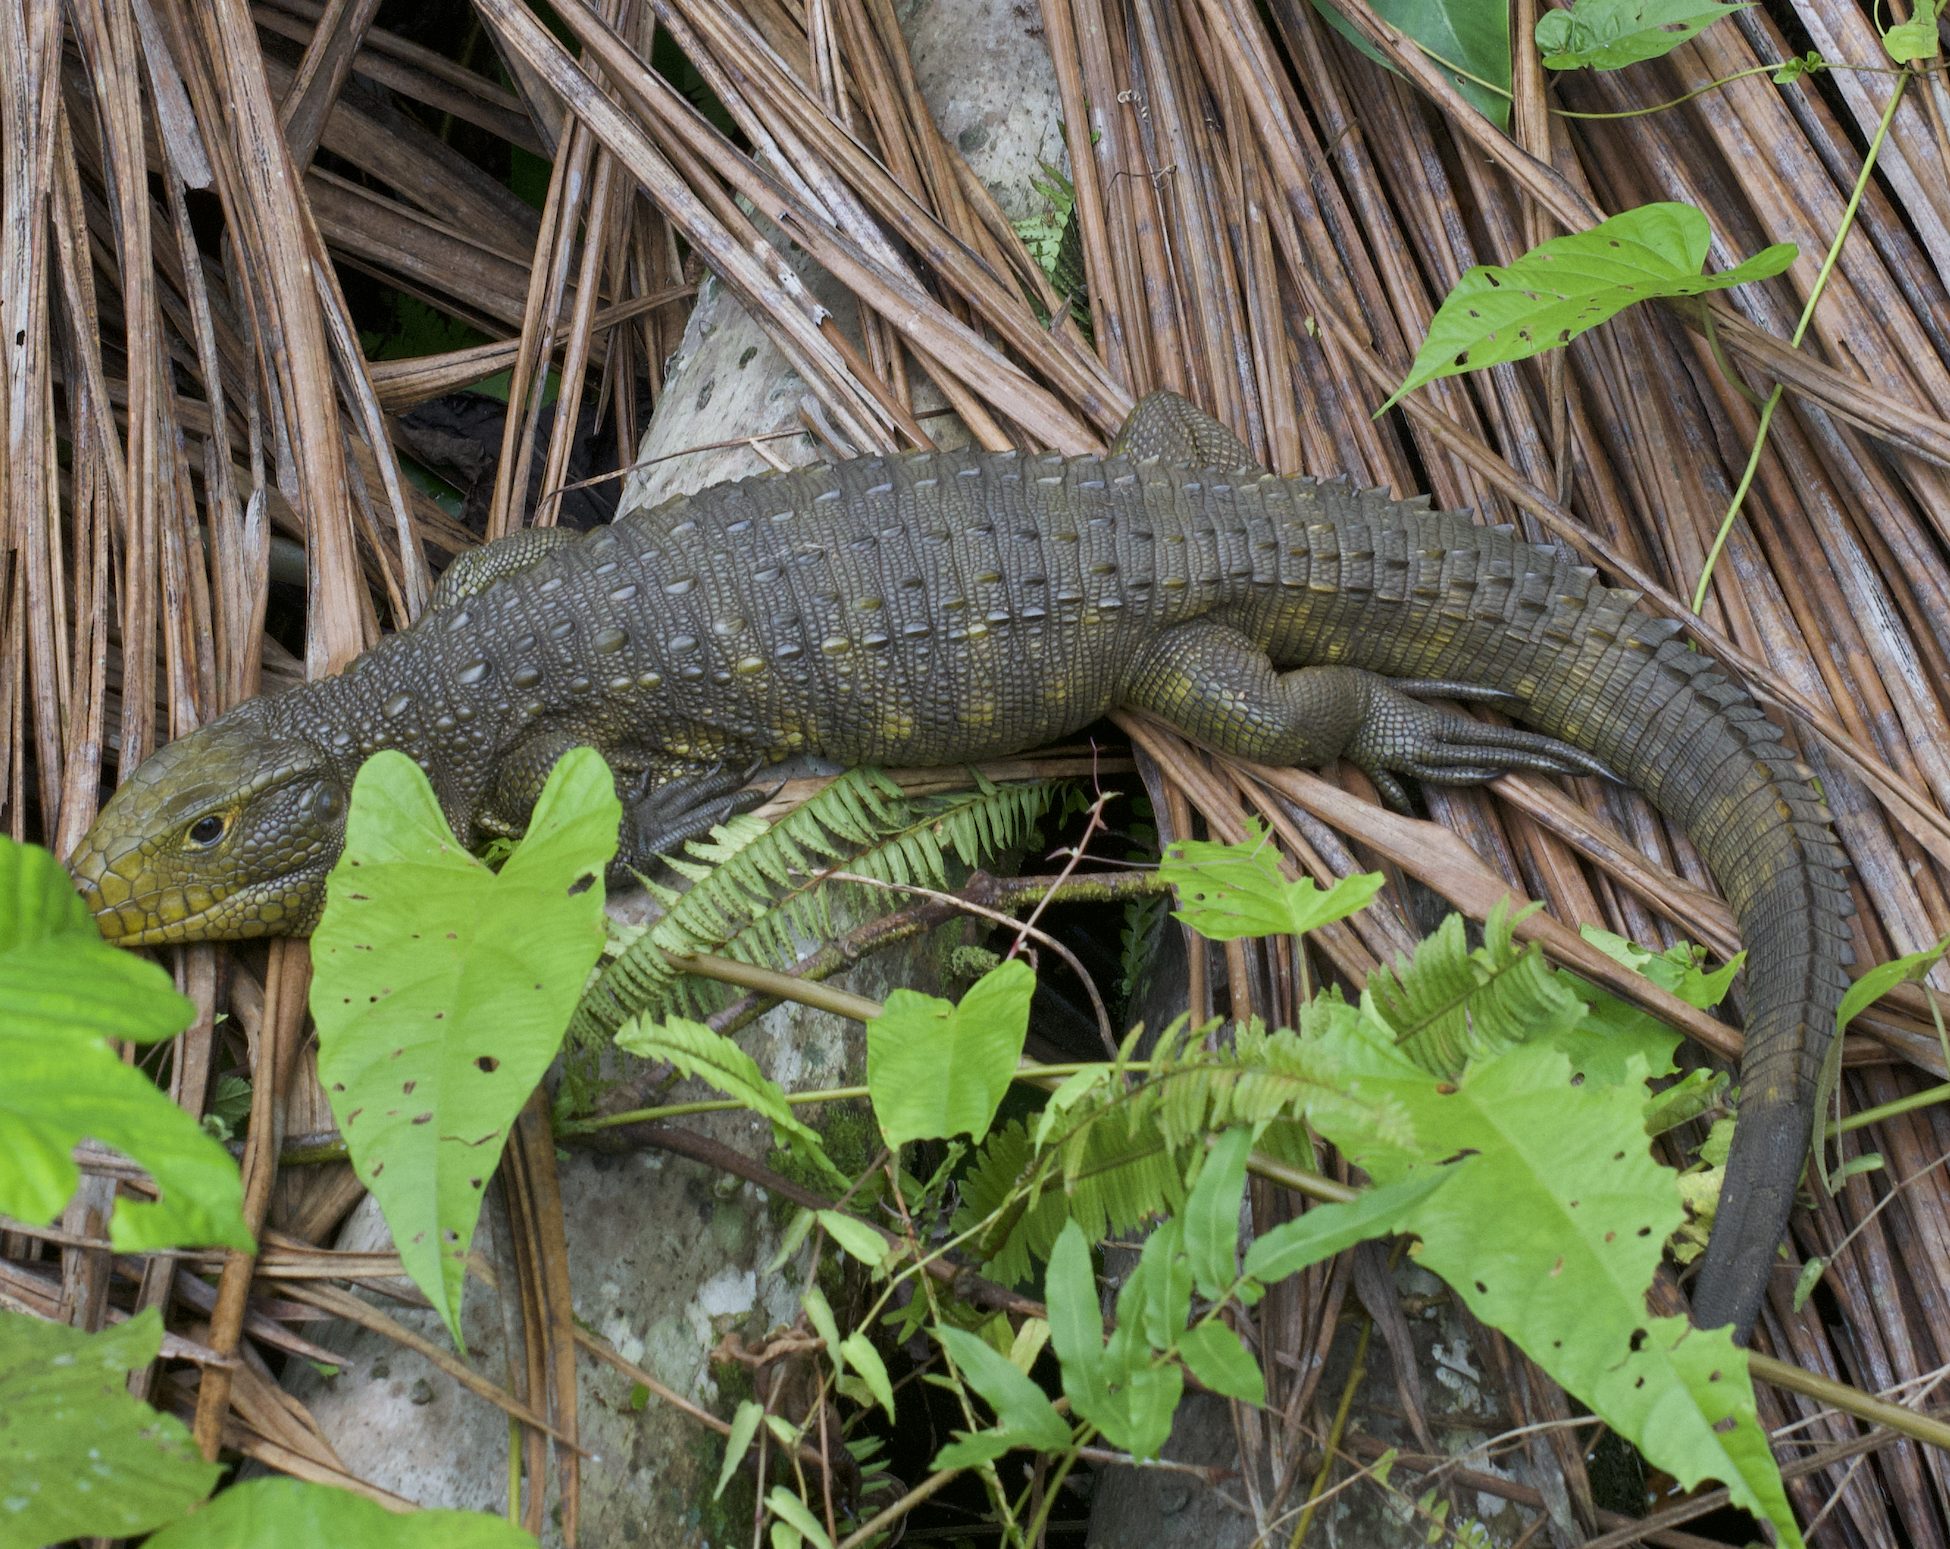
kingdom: Animalia
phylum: Chordata
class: Squamata
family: Teiidae
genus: Dracaena
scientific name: Dracaena guianensis
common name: Guyana caiman lizard
